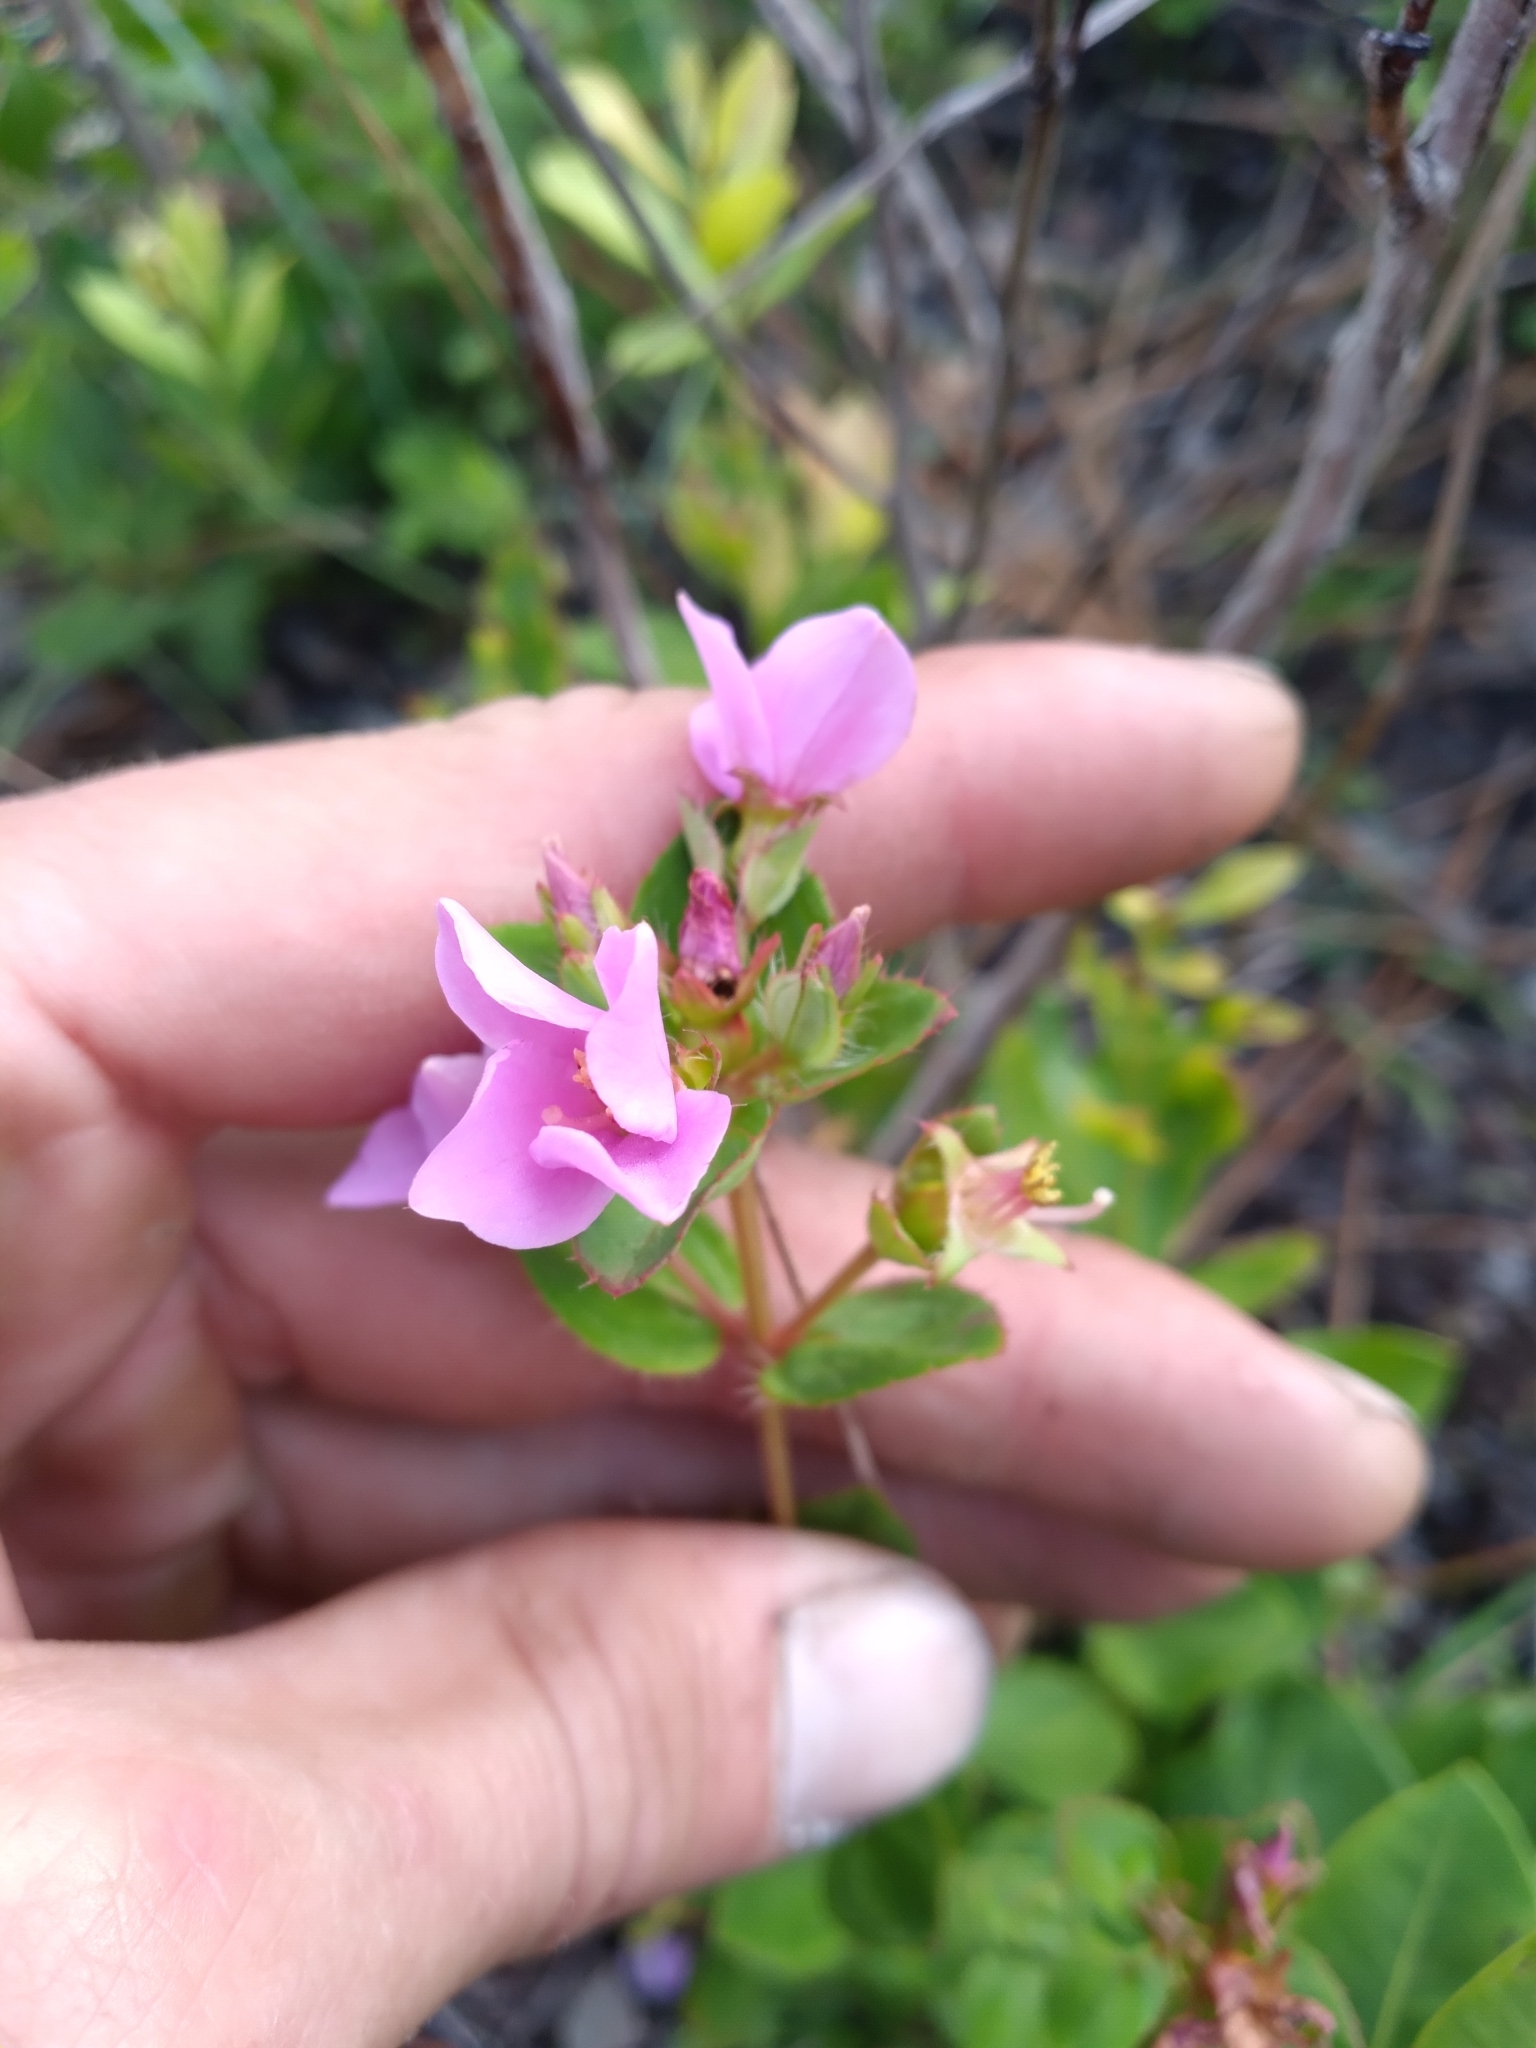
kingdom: Plantae
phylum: Tracheophyta
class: Magnoliopsida
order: Myrtales
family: Melastomataceae
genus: Rhexia
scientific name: Rhexia petiolata
